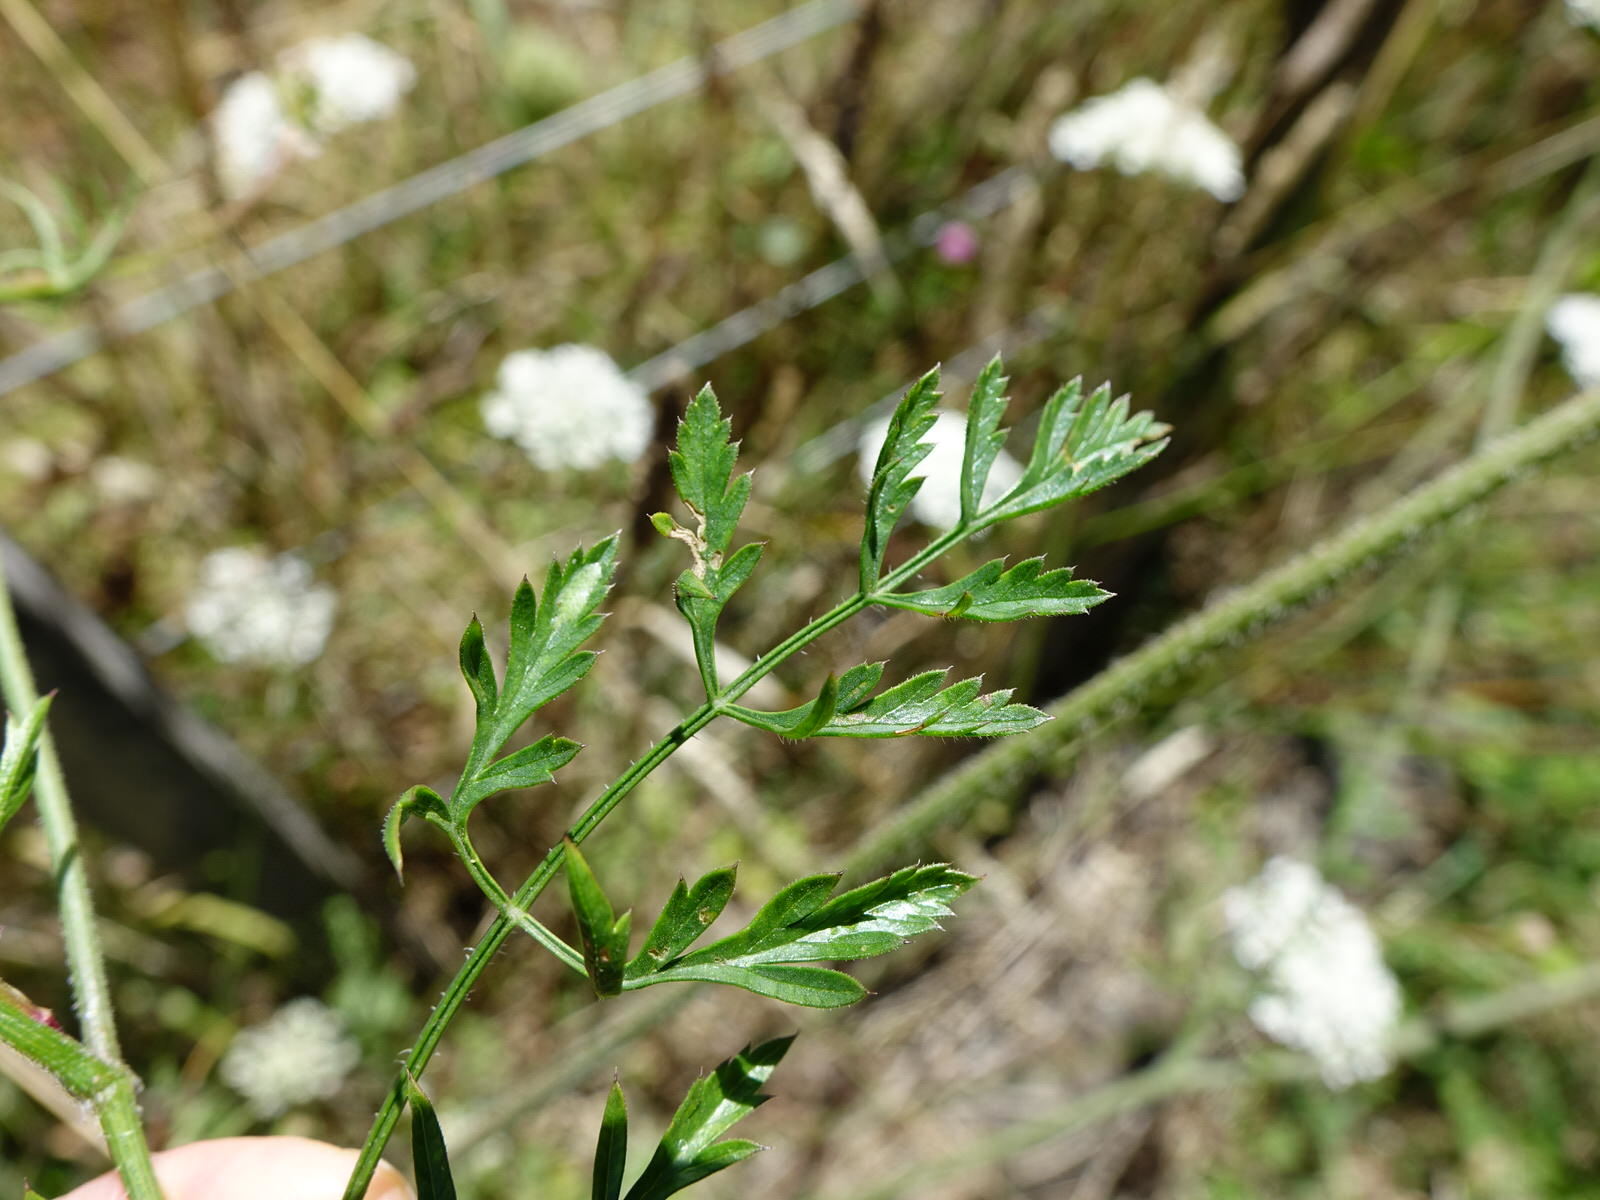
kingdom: Plantae
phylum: Tracheophyta
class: Magnoliopsida
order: Apiales
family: Apiaceae
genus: Daucus
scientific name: Daucus carota
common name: Wild carrot
